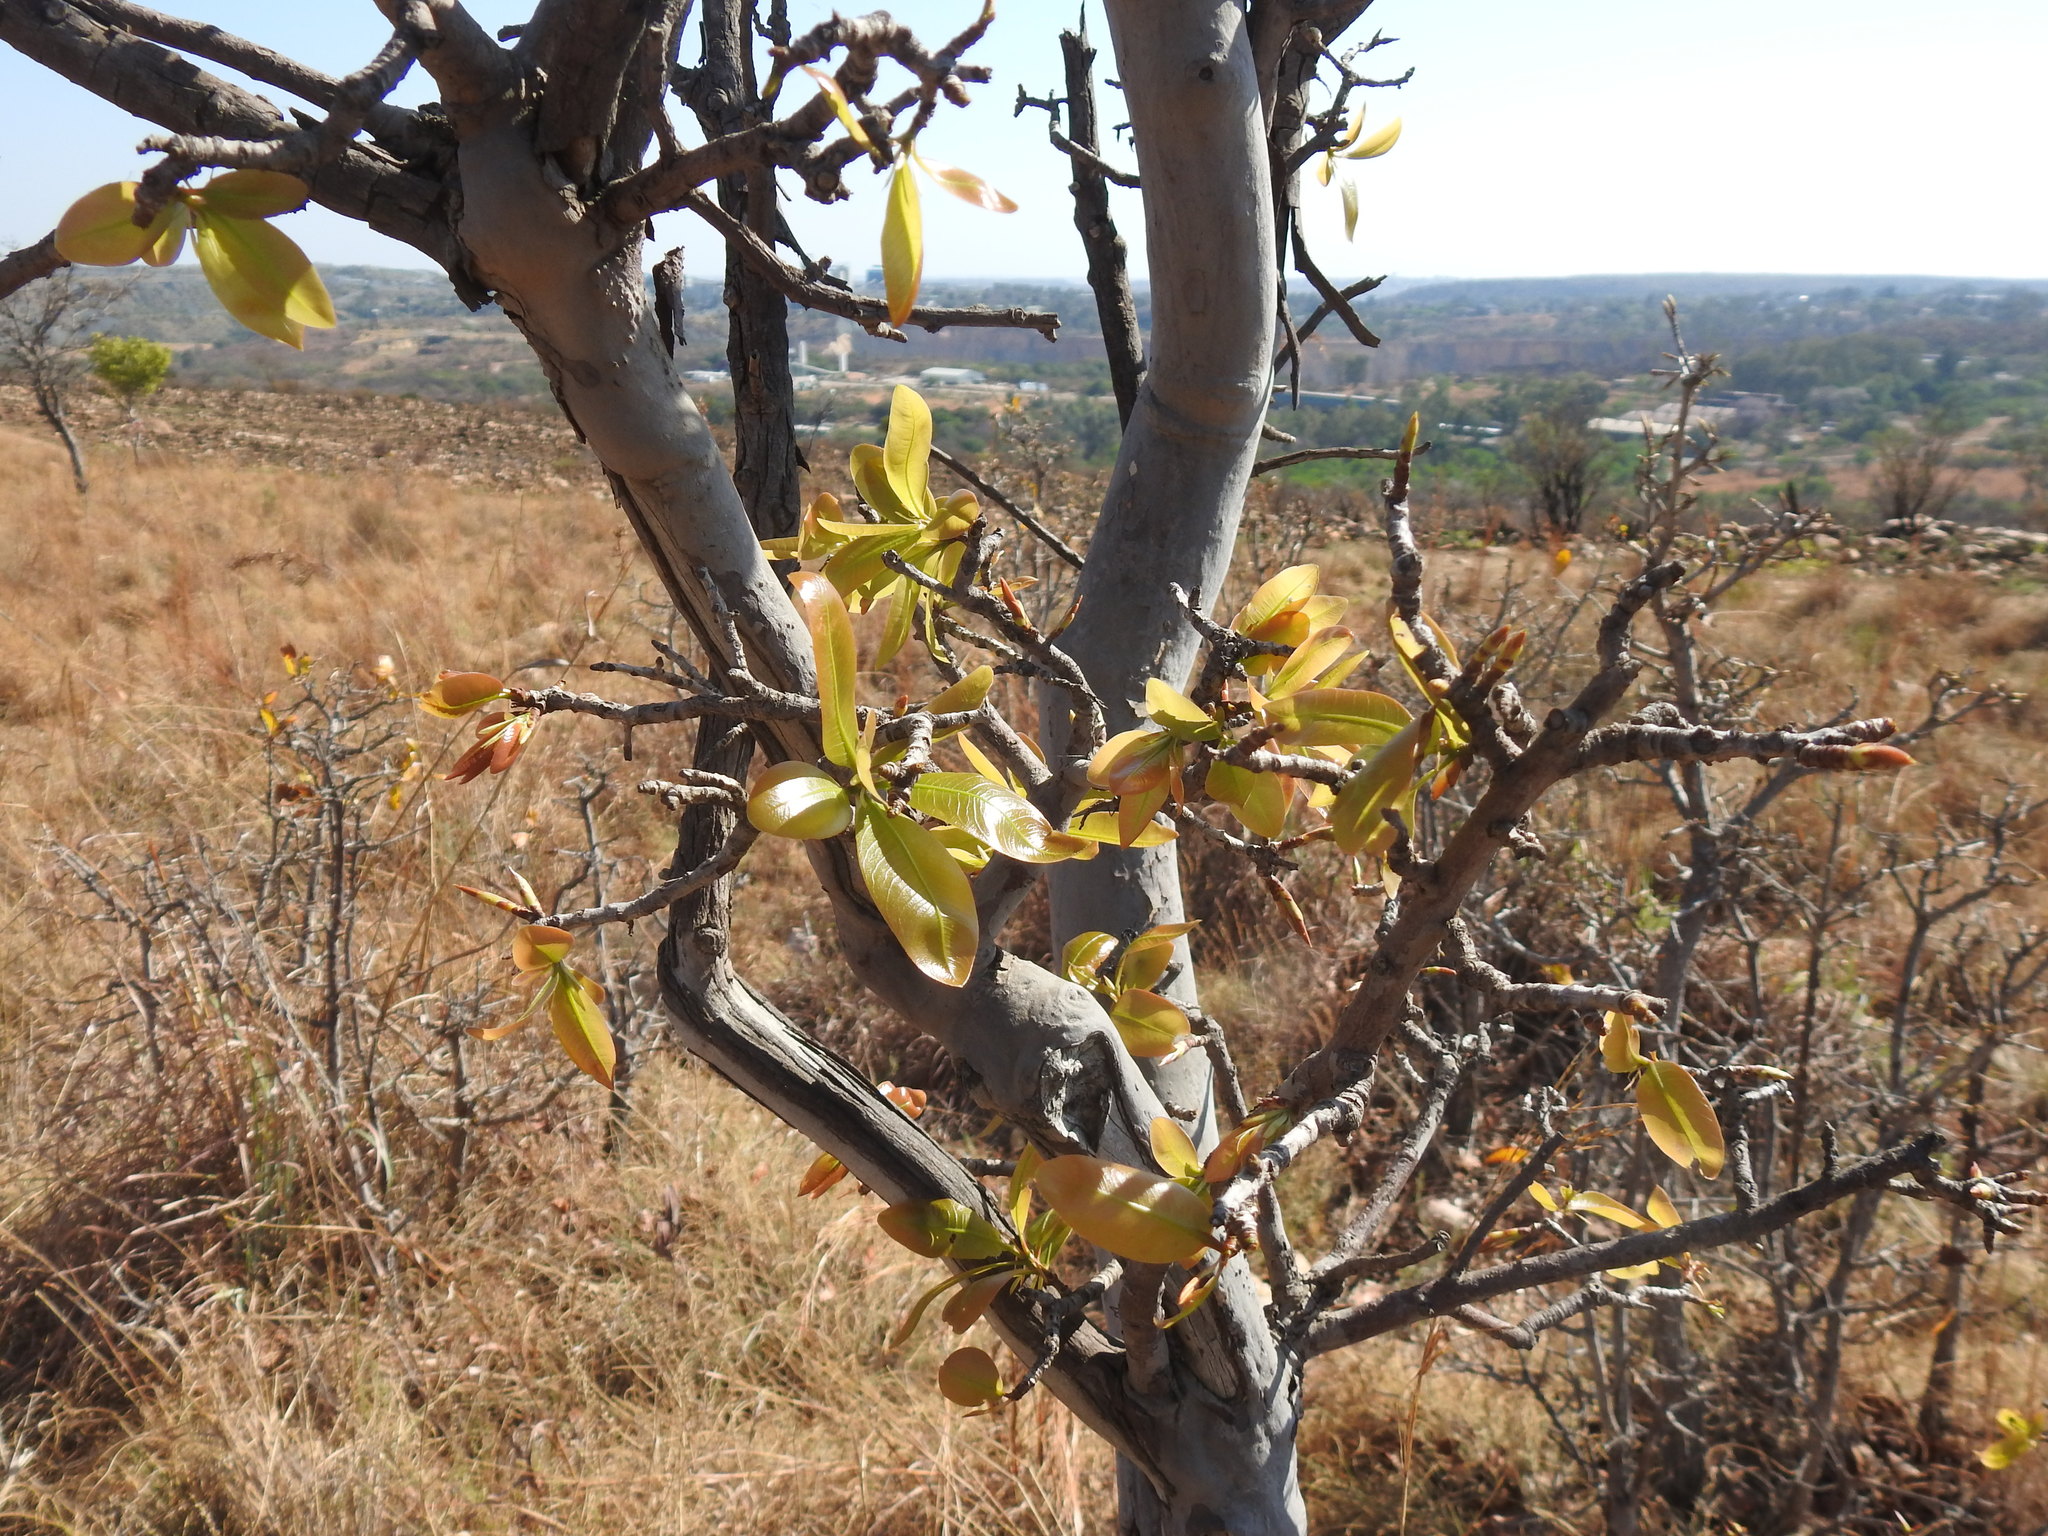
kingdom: Plantae
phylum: Tracheophyta
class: Magnoliopsida
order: Malpighiales
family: Ochnaceae
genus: Ochna
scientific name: Ochna pulchra
